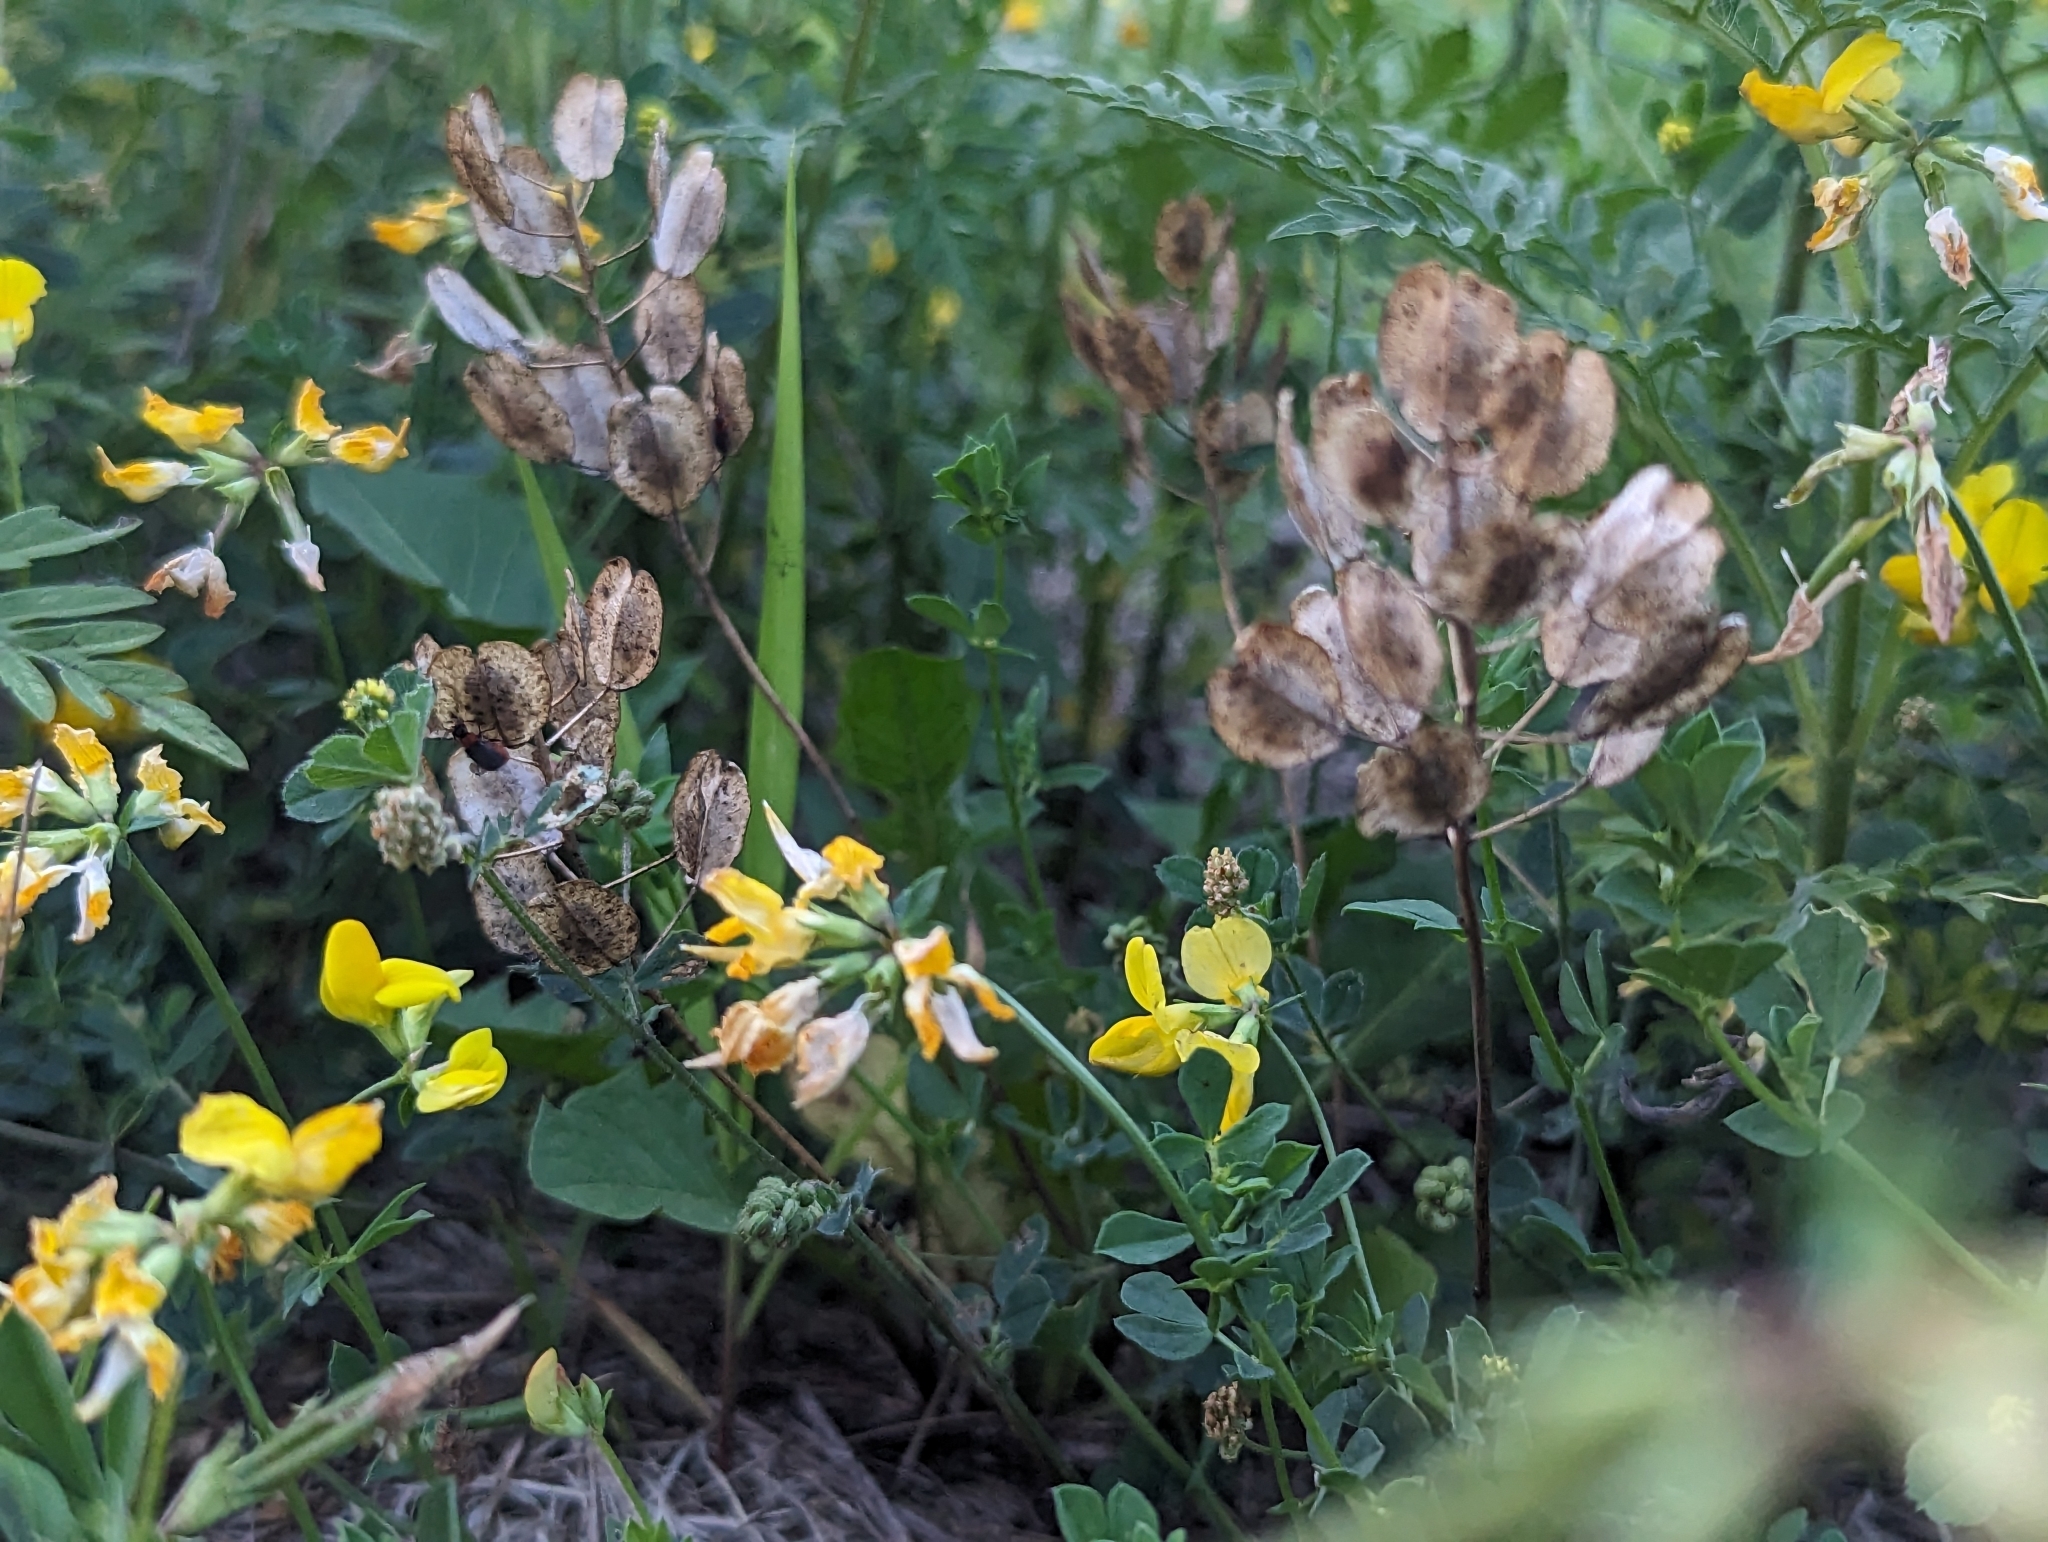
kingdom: Plantae
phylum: Tracheophyta
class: Magnoliopsida
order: Brassicales
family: Brassicaceae
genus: Thlaspi
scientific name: Thlaspi arvense
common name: Field pennycress
